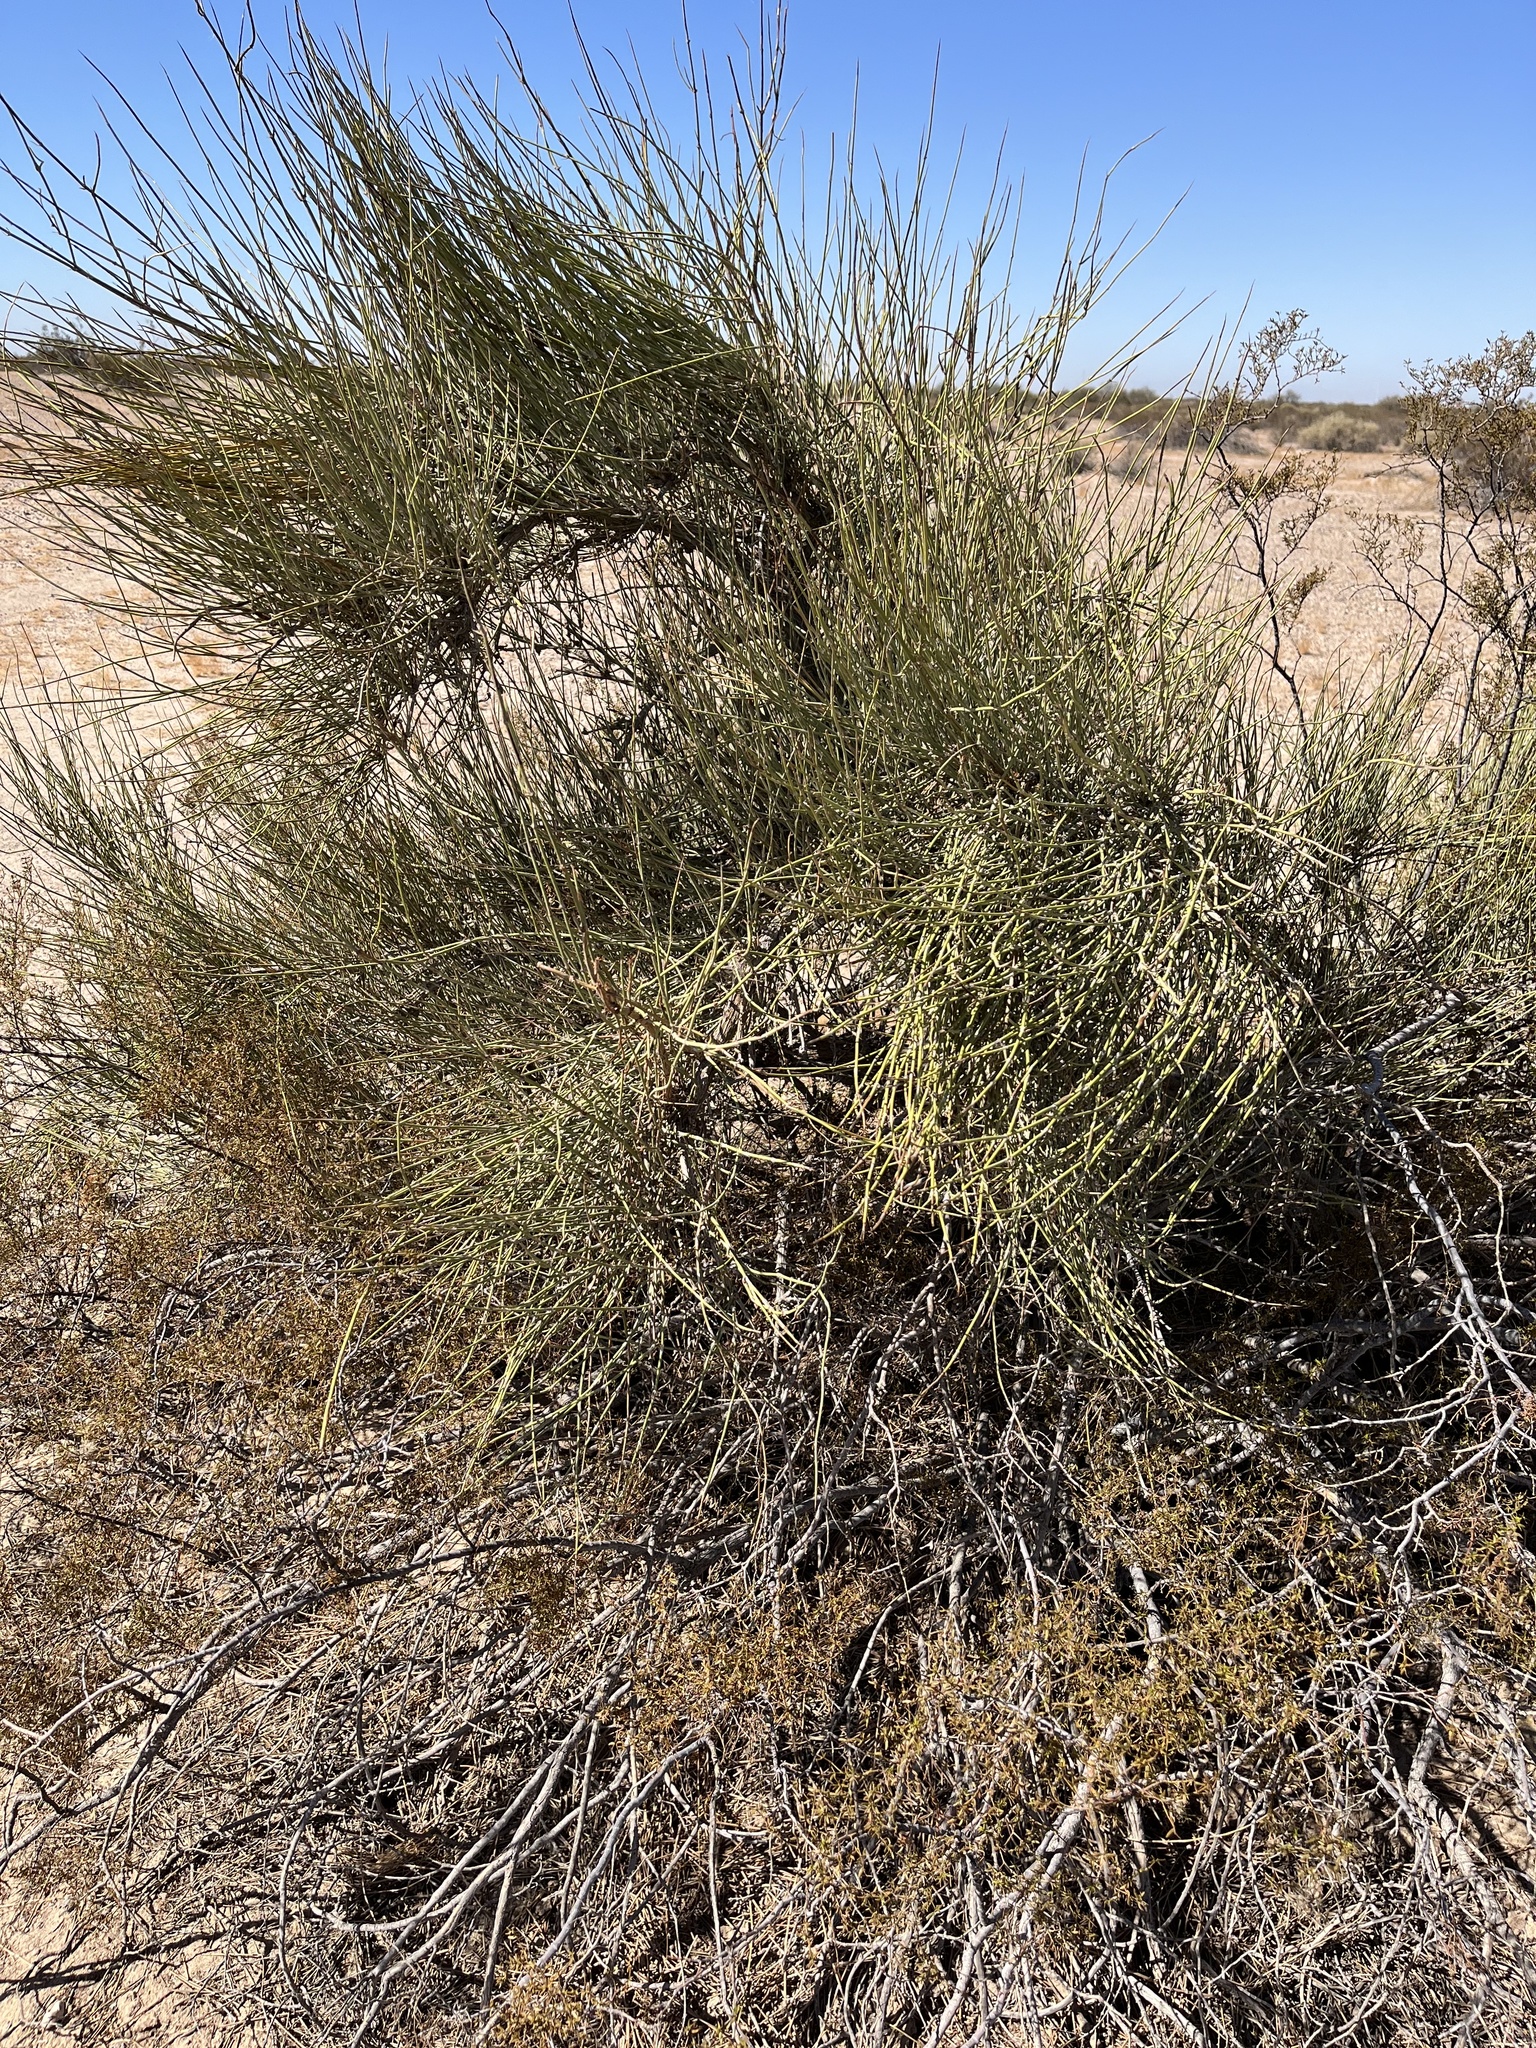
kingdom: Plantae
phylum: Tracheophyta
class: Gnetopsida
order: Ephedrales
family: Ephedraceae
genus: Ephedra
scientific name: Ephedra trifurca
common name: Mexican-tea
